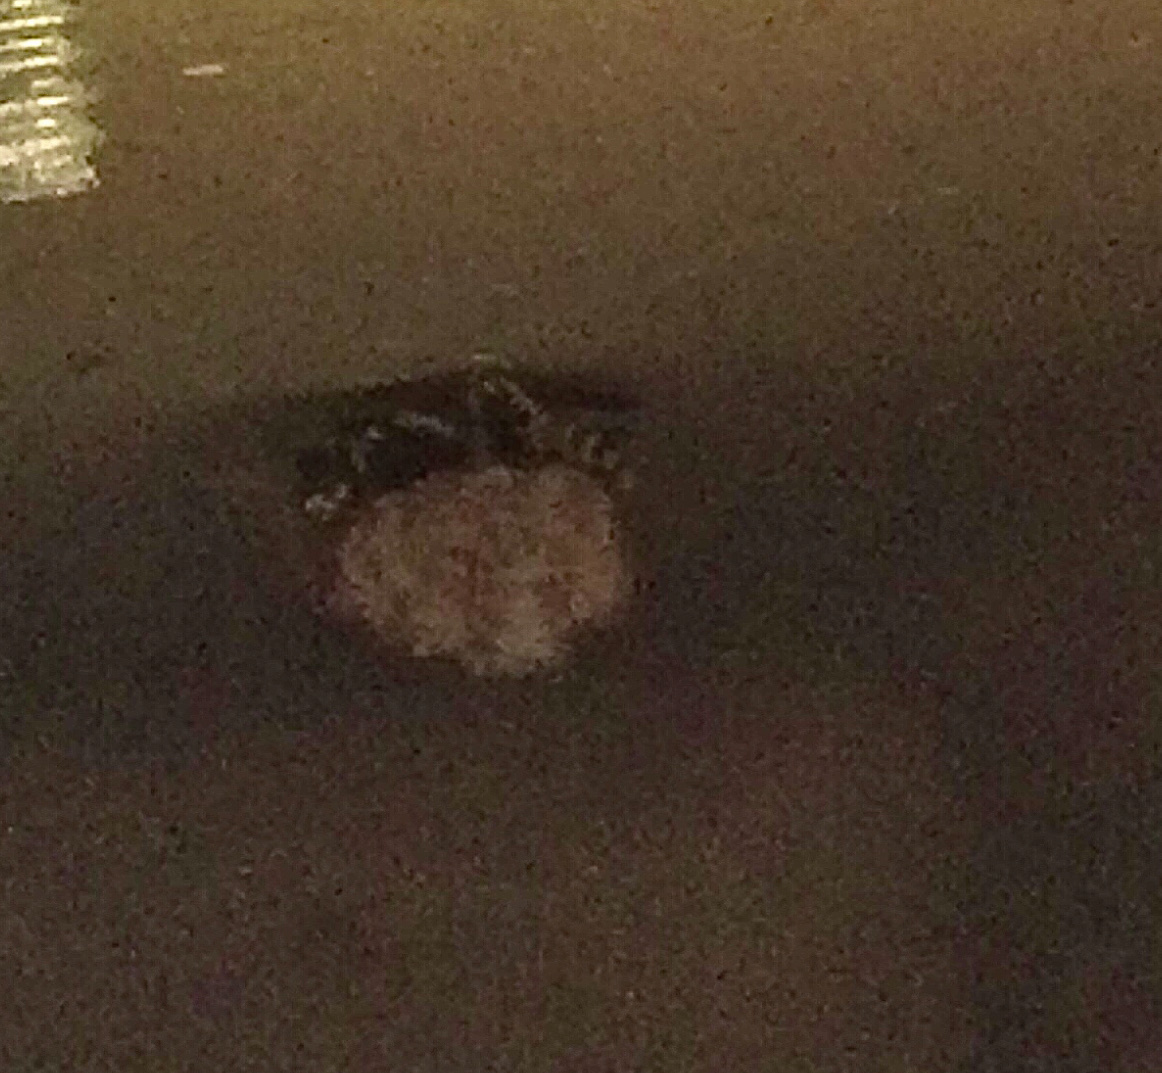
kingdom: Animalia
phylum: Arthropoda
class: Insecta
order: Hymenoptera
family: Eumenidae
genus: Polistes
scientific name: Polistes dominula
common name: Paper wasp
